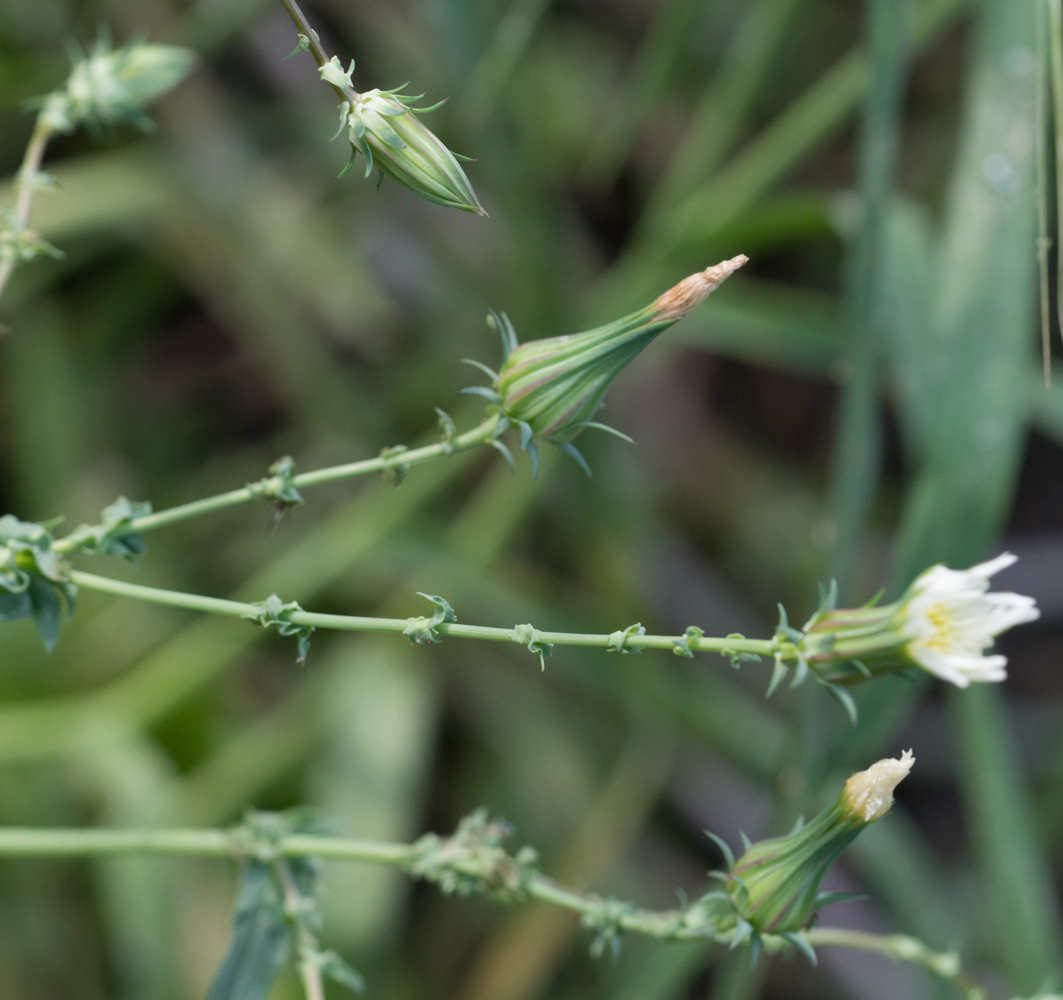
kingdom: Plantae
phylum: Tracheophyta
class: Magnoliopsida
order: Asterales
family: Asteraceae
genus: Rafinesquia
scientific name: Rafinesquia californica
